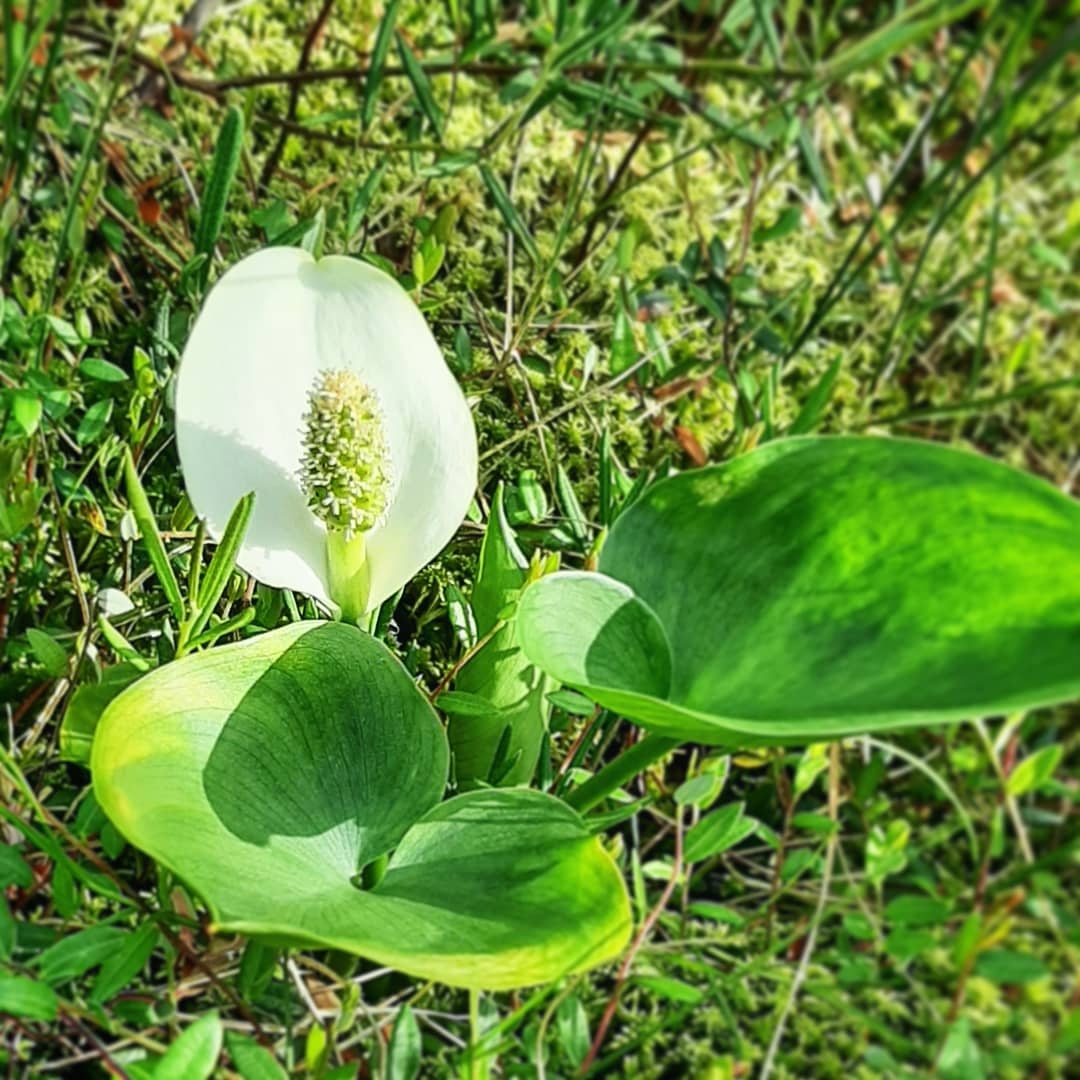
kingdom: Plantae
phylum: Tracheophyta
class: Liliopsida
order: Alismatales
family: Araceae
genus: Calla
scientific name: Calla palustris
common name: Bog arum
